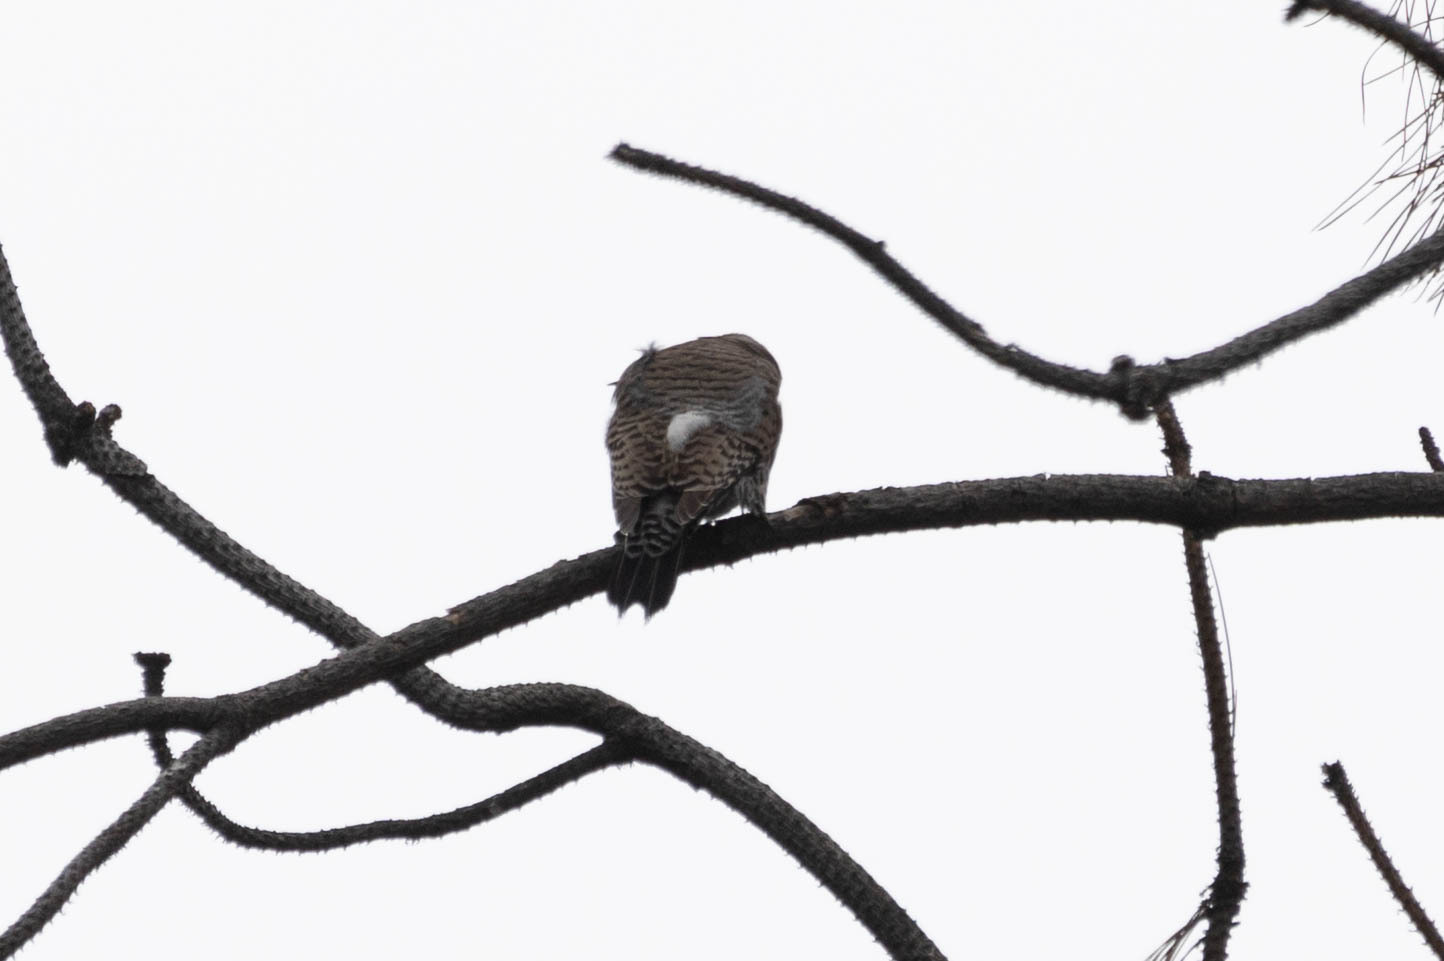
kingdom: Animalia
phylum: Chordata
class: Aves
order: Piciformes
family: Picidae
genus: Colaptes
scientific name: Colaptes auratus
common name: Northern flicker
